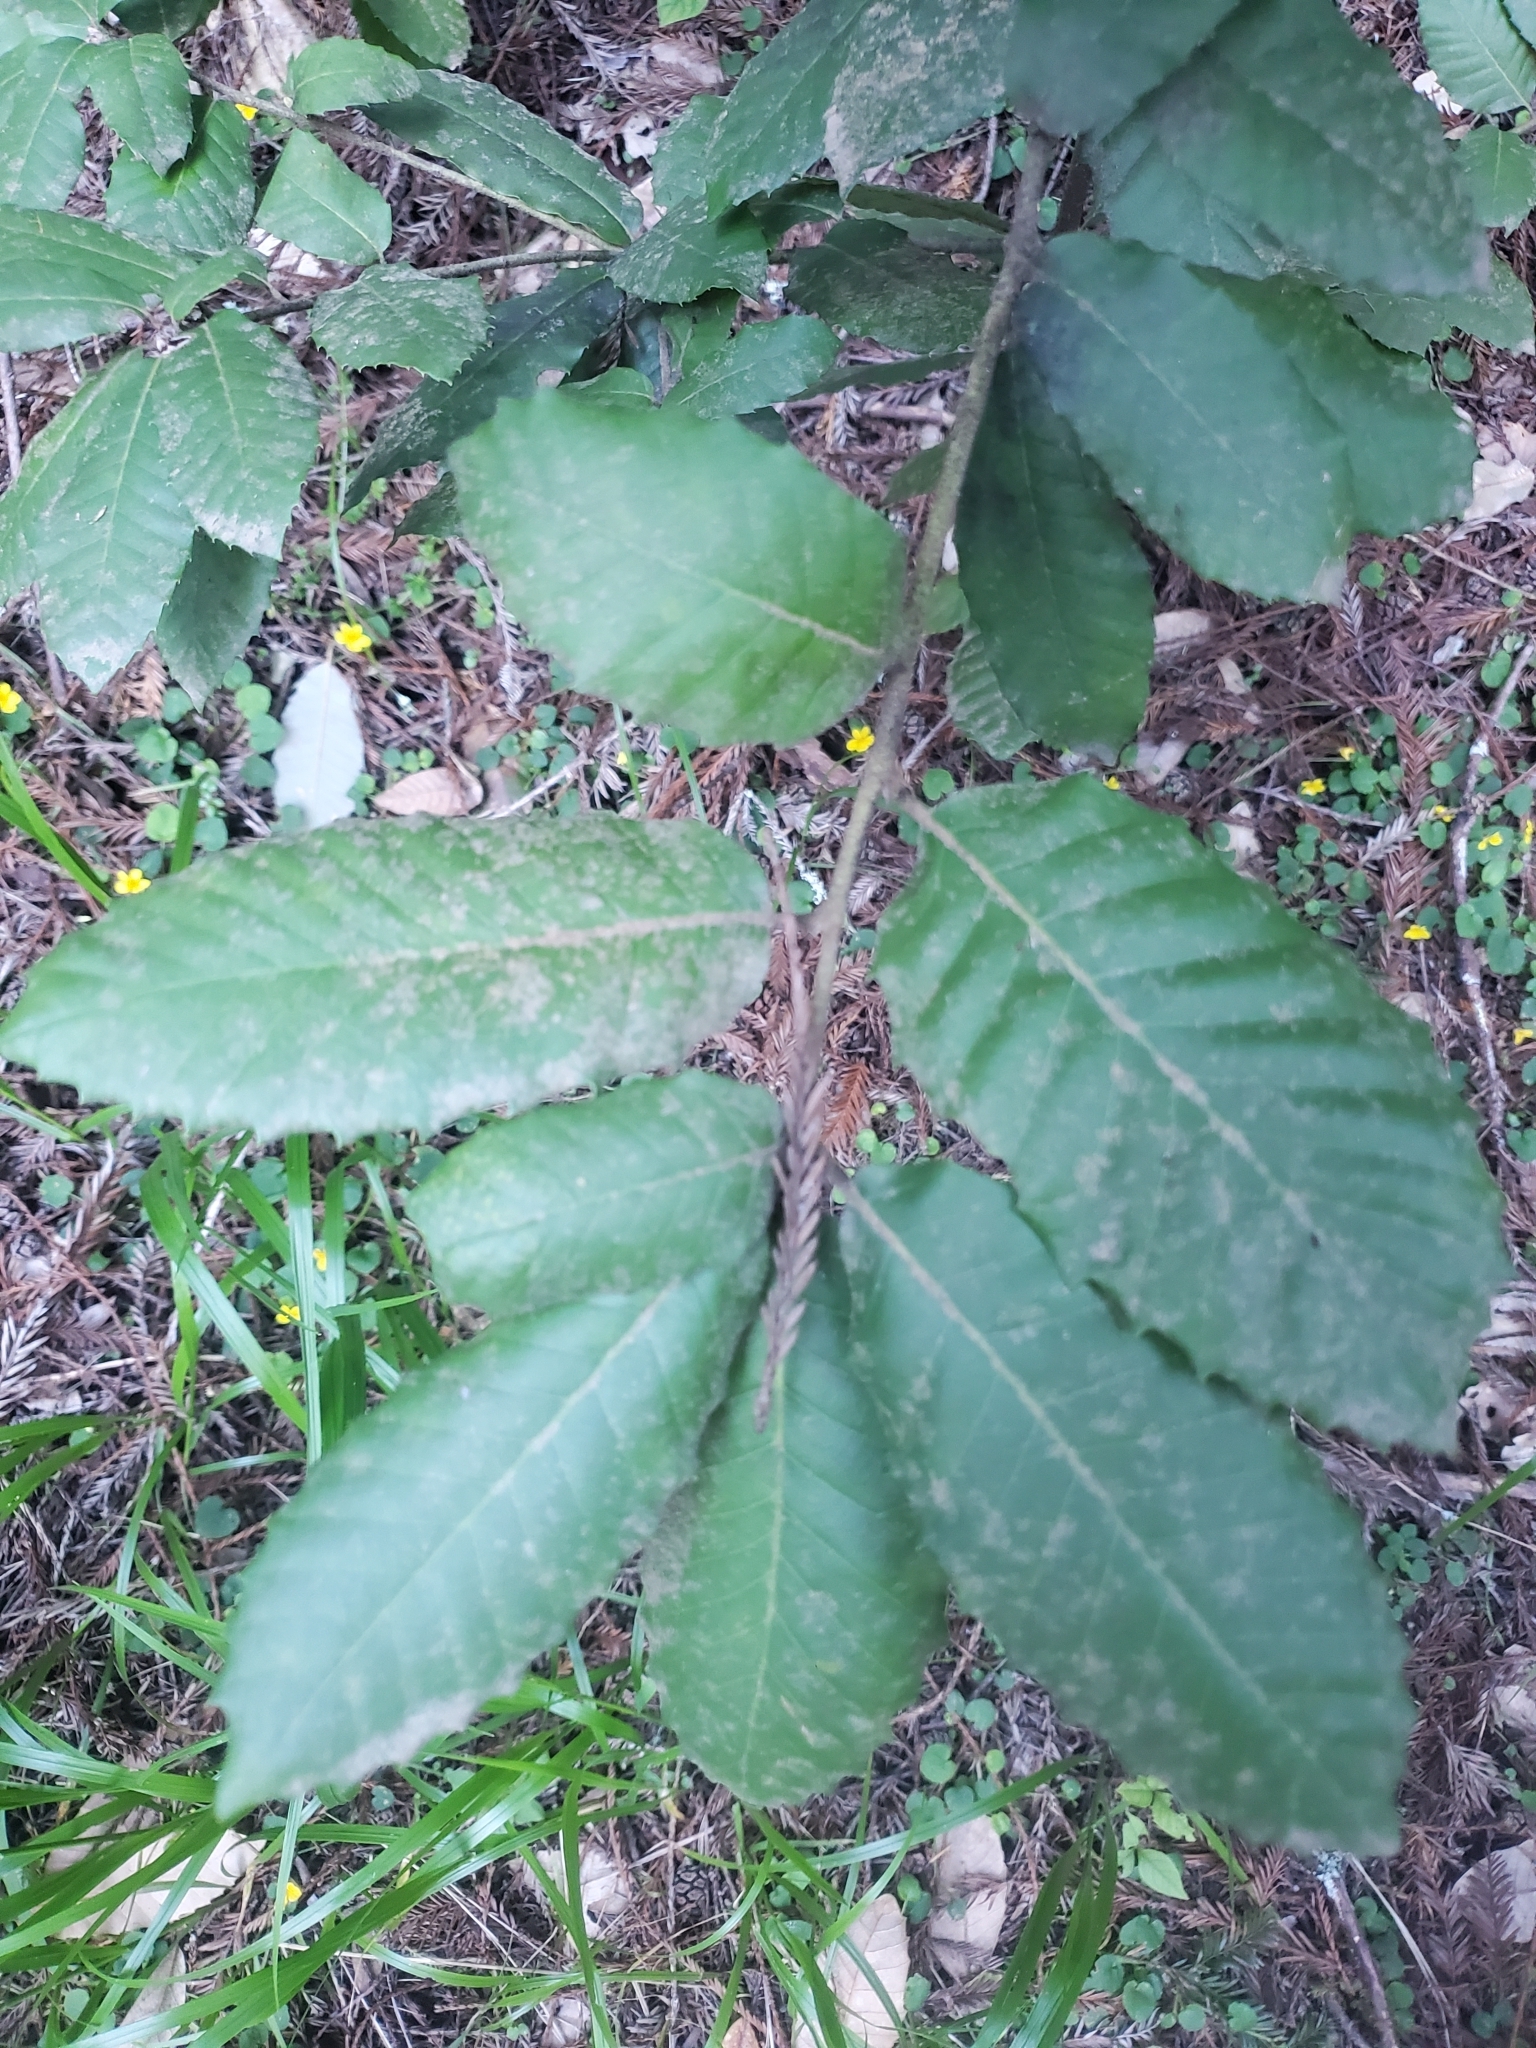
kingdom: Plantae
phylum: Tracheophyta
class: Magnoliopsida
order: Fagales
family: Fagaceae
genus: Notholithocarpus
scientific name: Notholithocarpus densiflorus
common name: Tan bark oak
